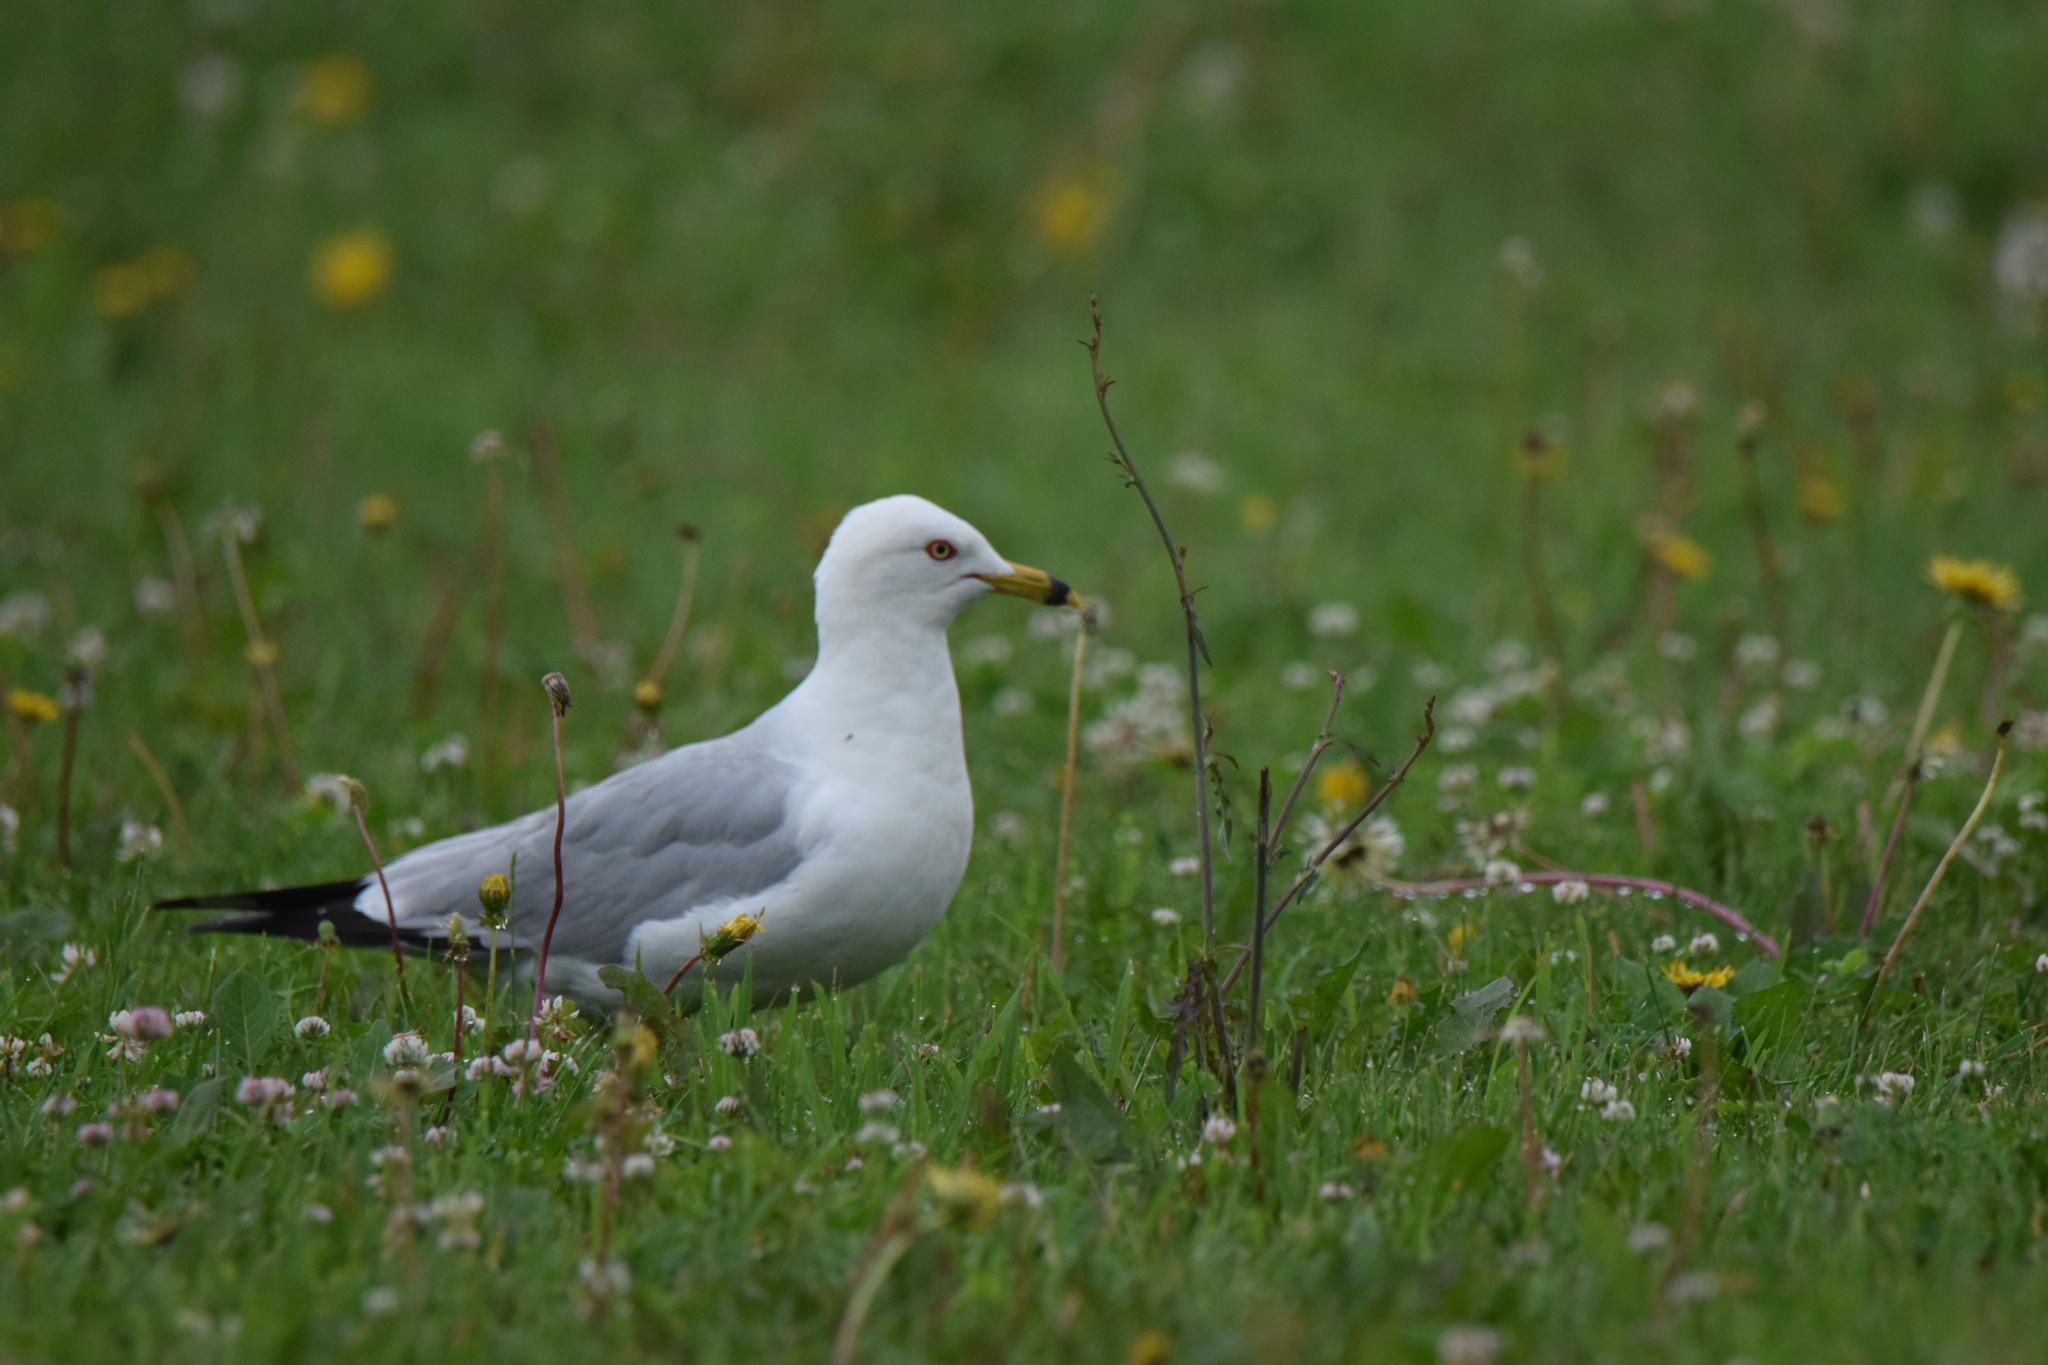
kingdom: Animalia
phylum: Chordata
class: Aves
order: Charadriiformes
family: Laridae
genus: Larus
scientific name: Larus delawarensis
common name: Ring-billed gull
